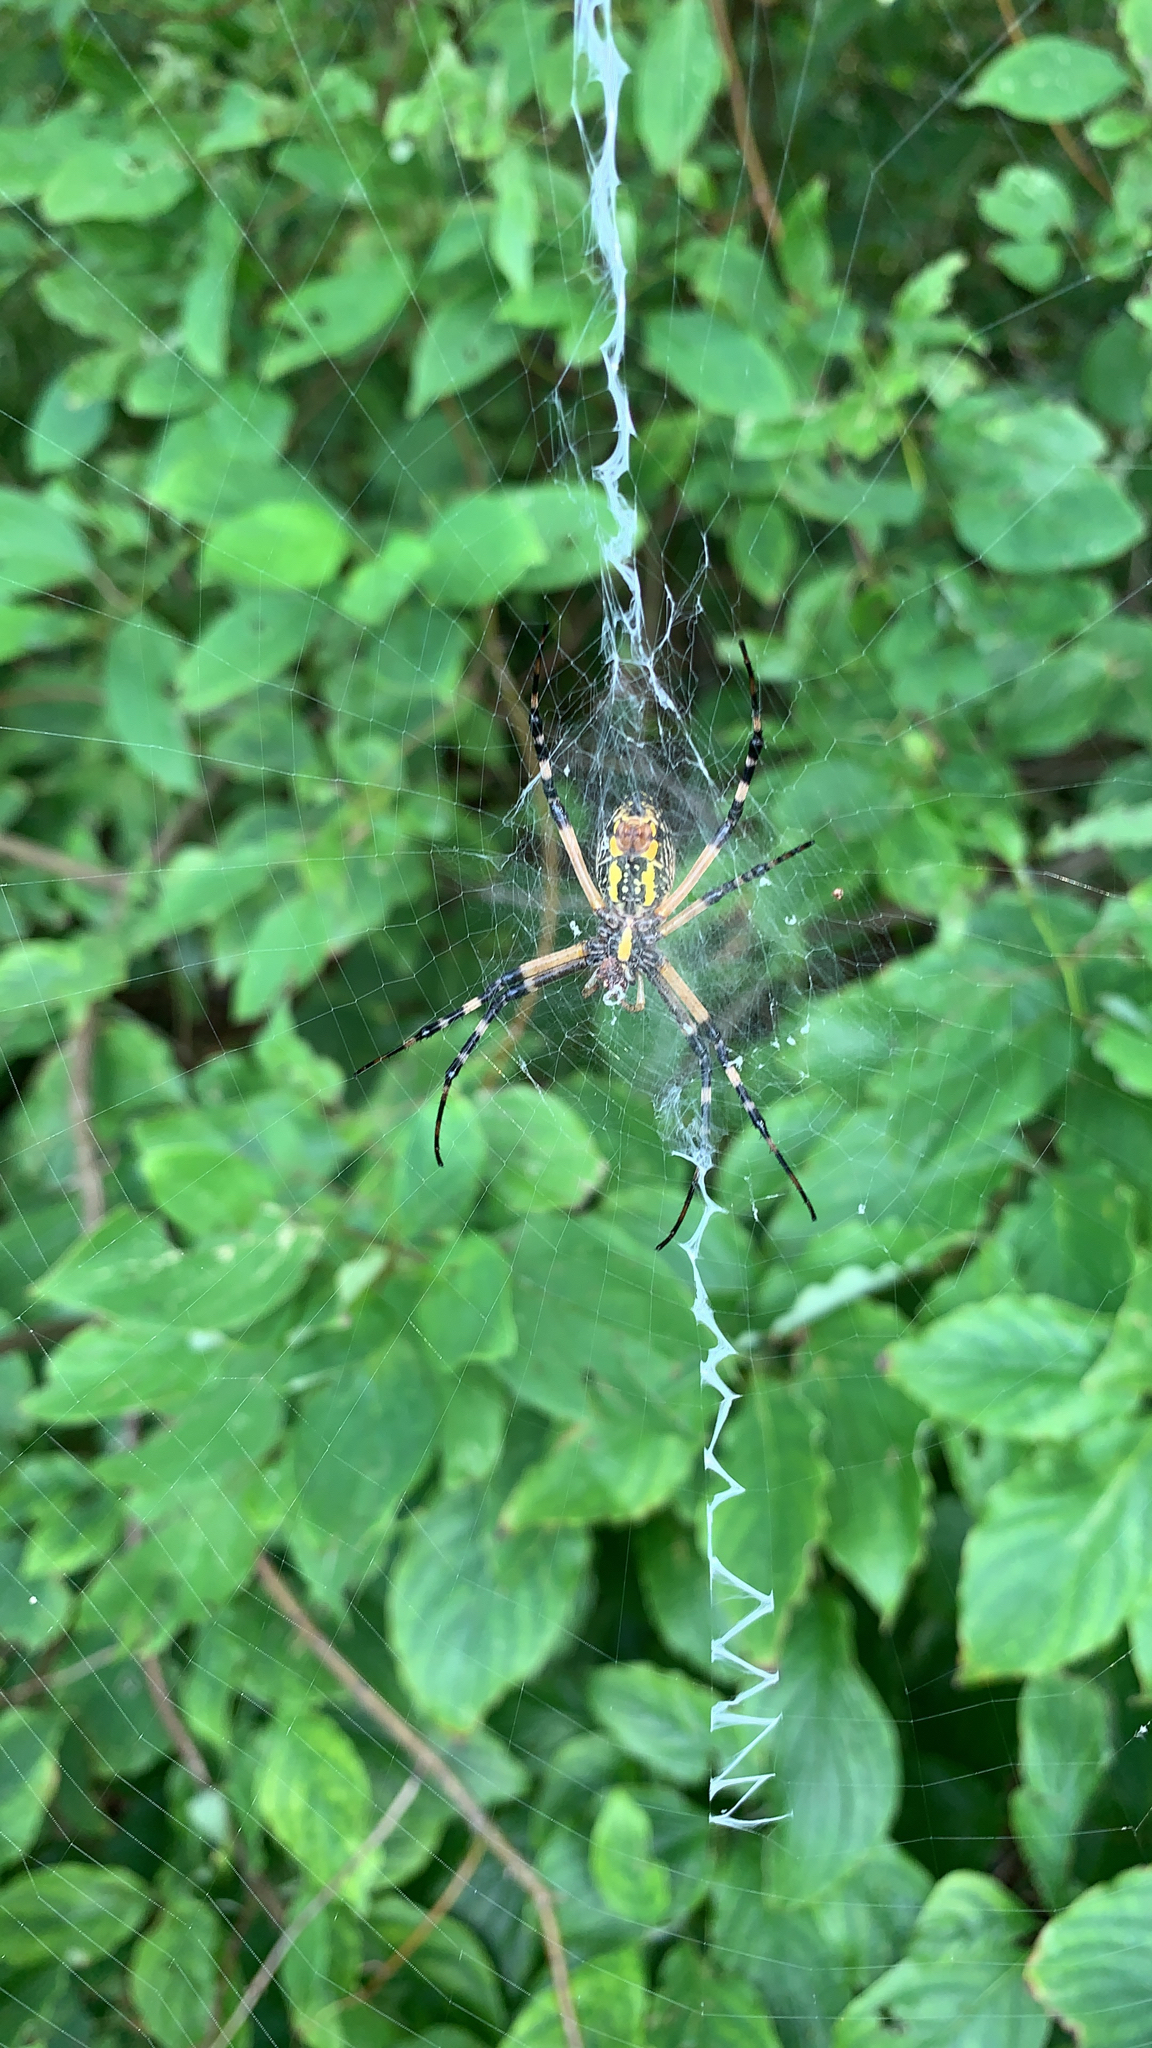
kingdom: Animalia
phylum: Arthropoda
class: Arachnida
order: Araneae
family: Araneidae
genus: Argiope
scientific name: Argiope aurantia
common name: Orb weavers
